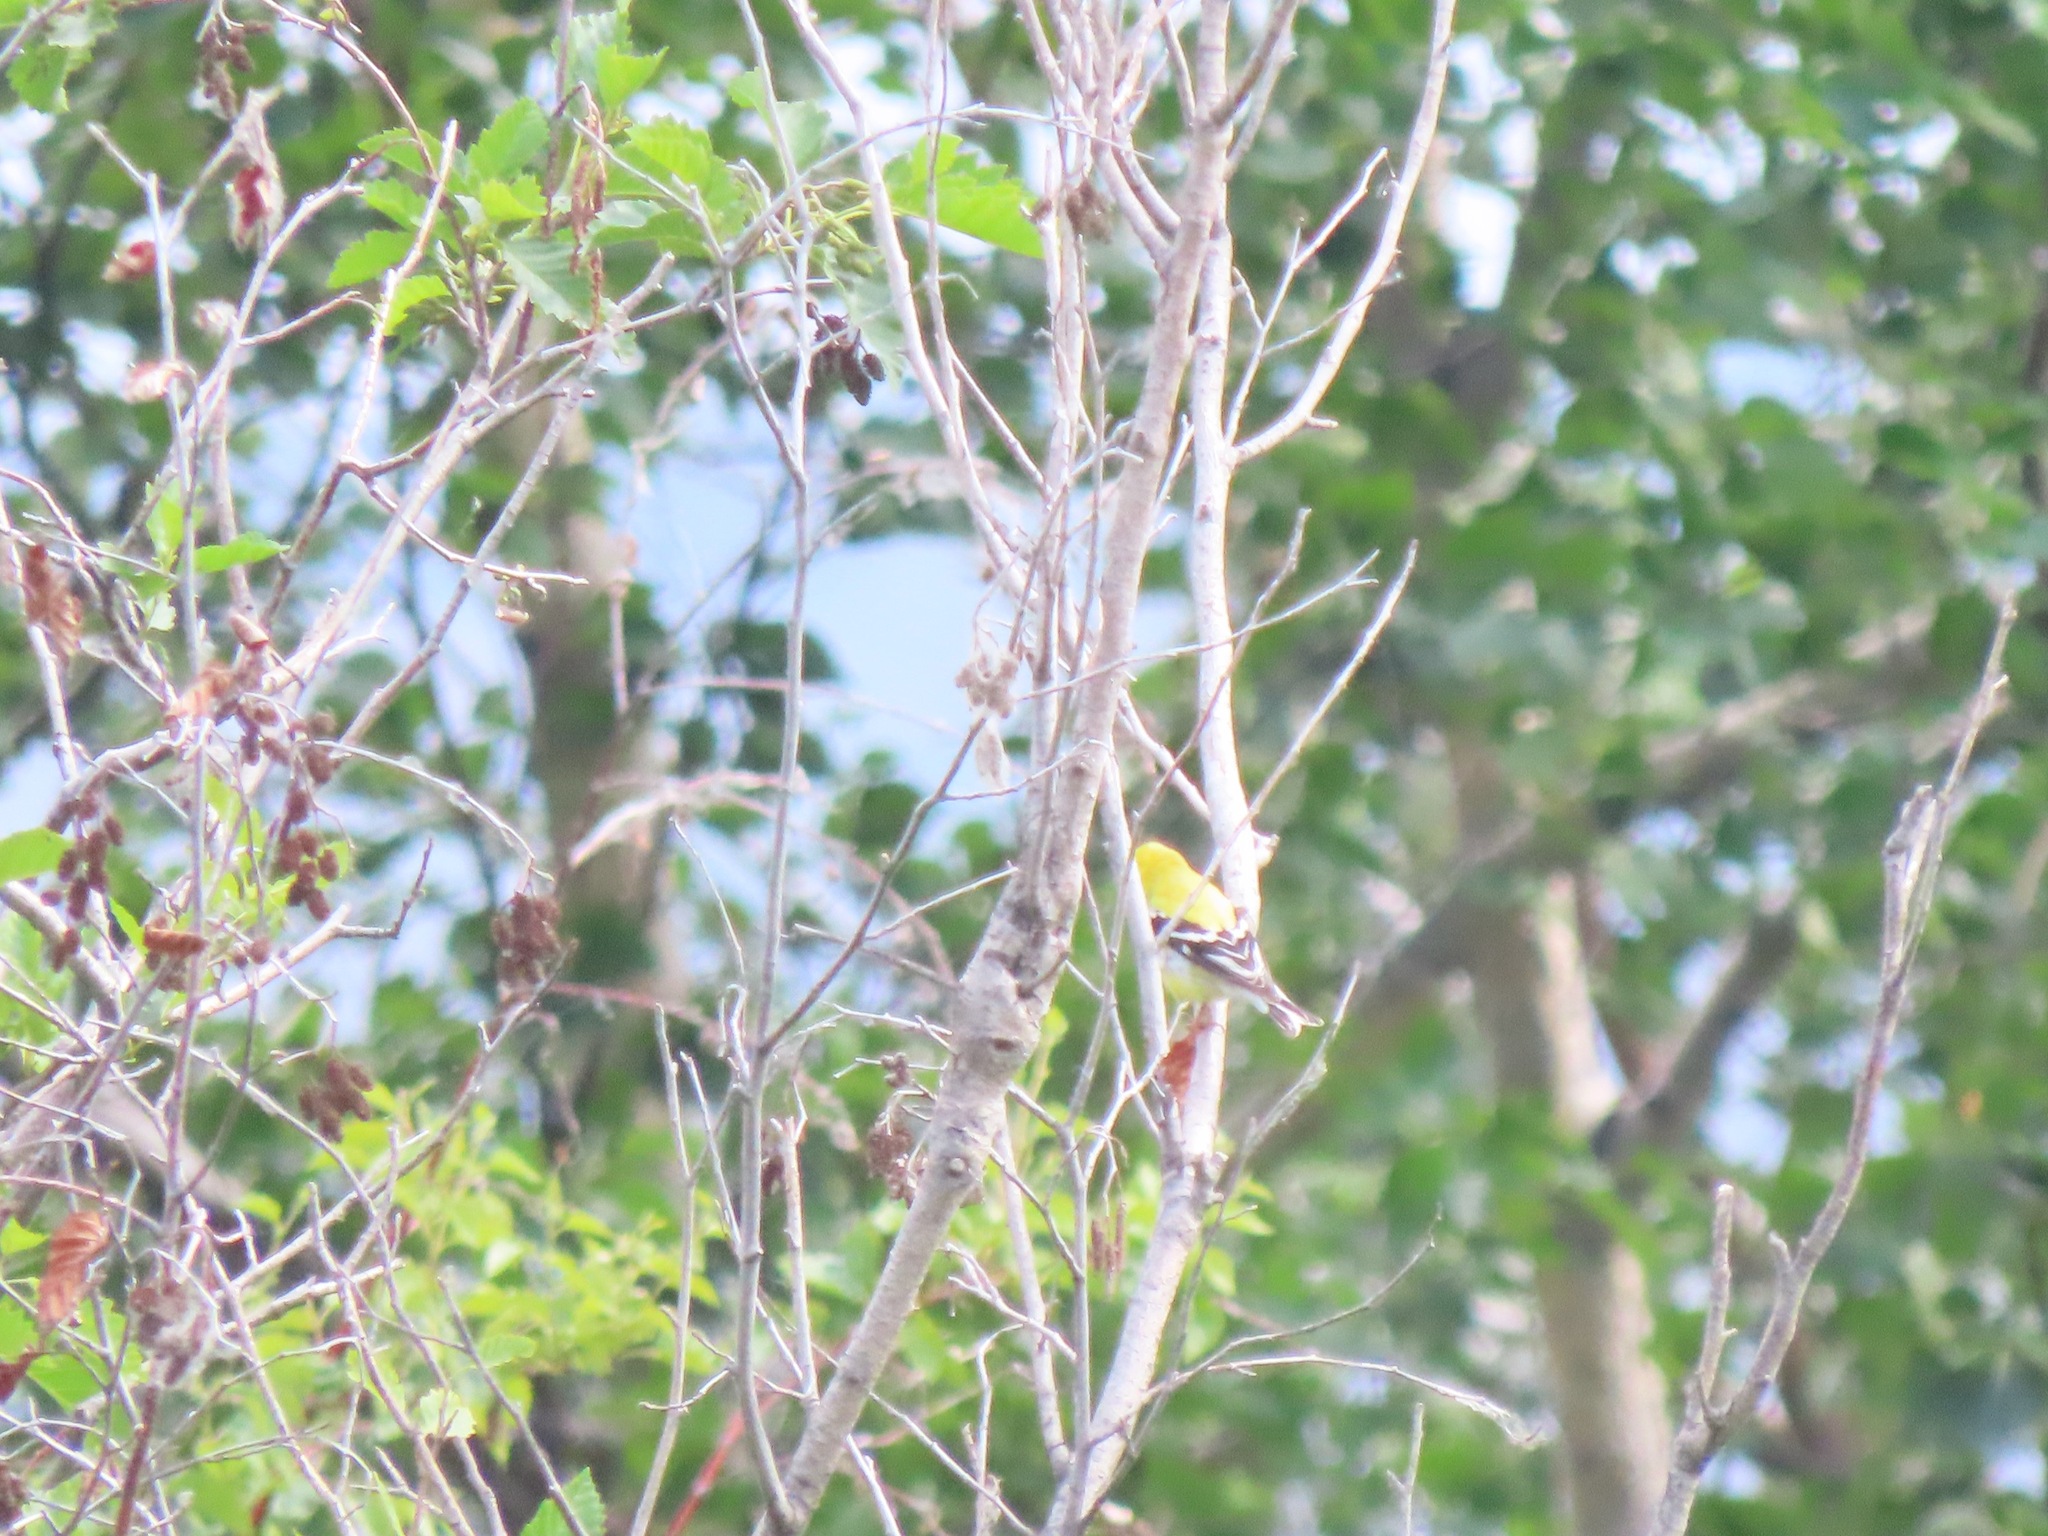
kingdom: Animalia
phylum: Chordata
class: Aves
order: Passeriformes
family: Fringillidae
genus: Spinus
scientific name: Spinus tristis
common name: American goldfinch
